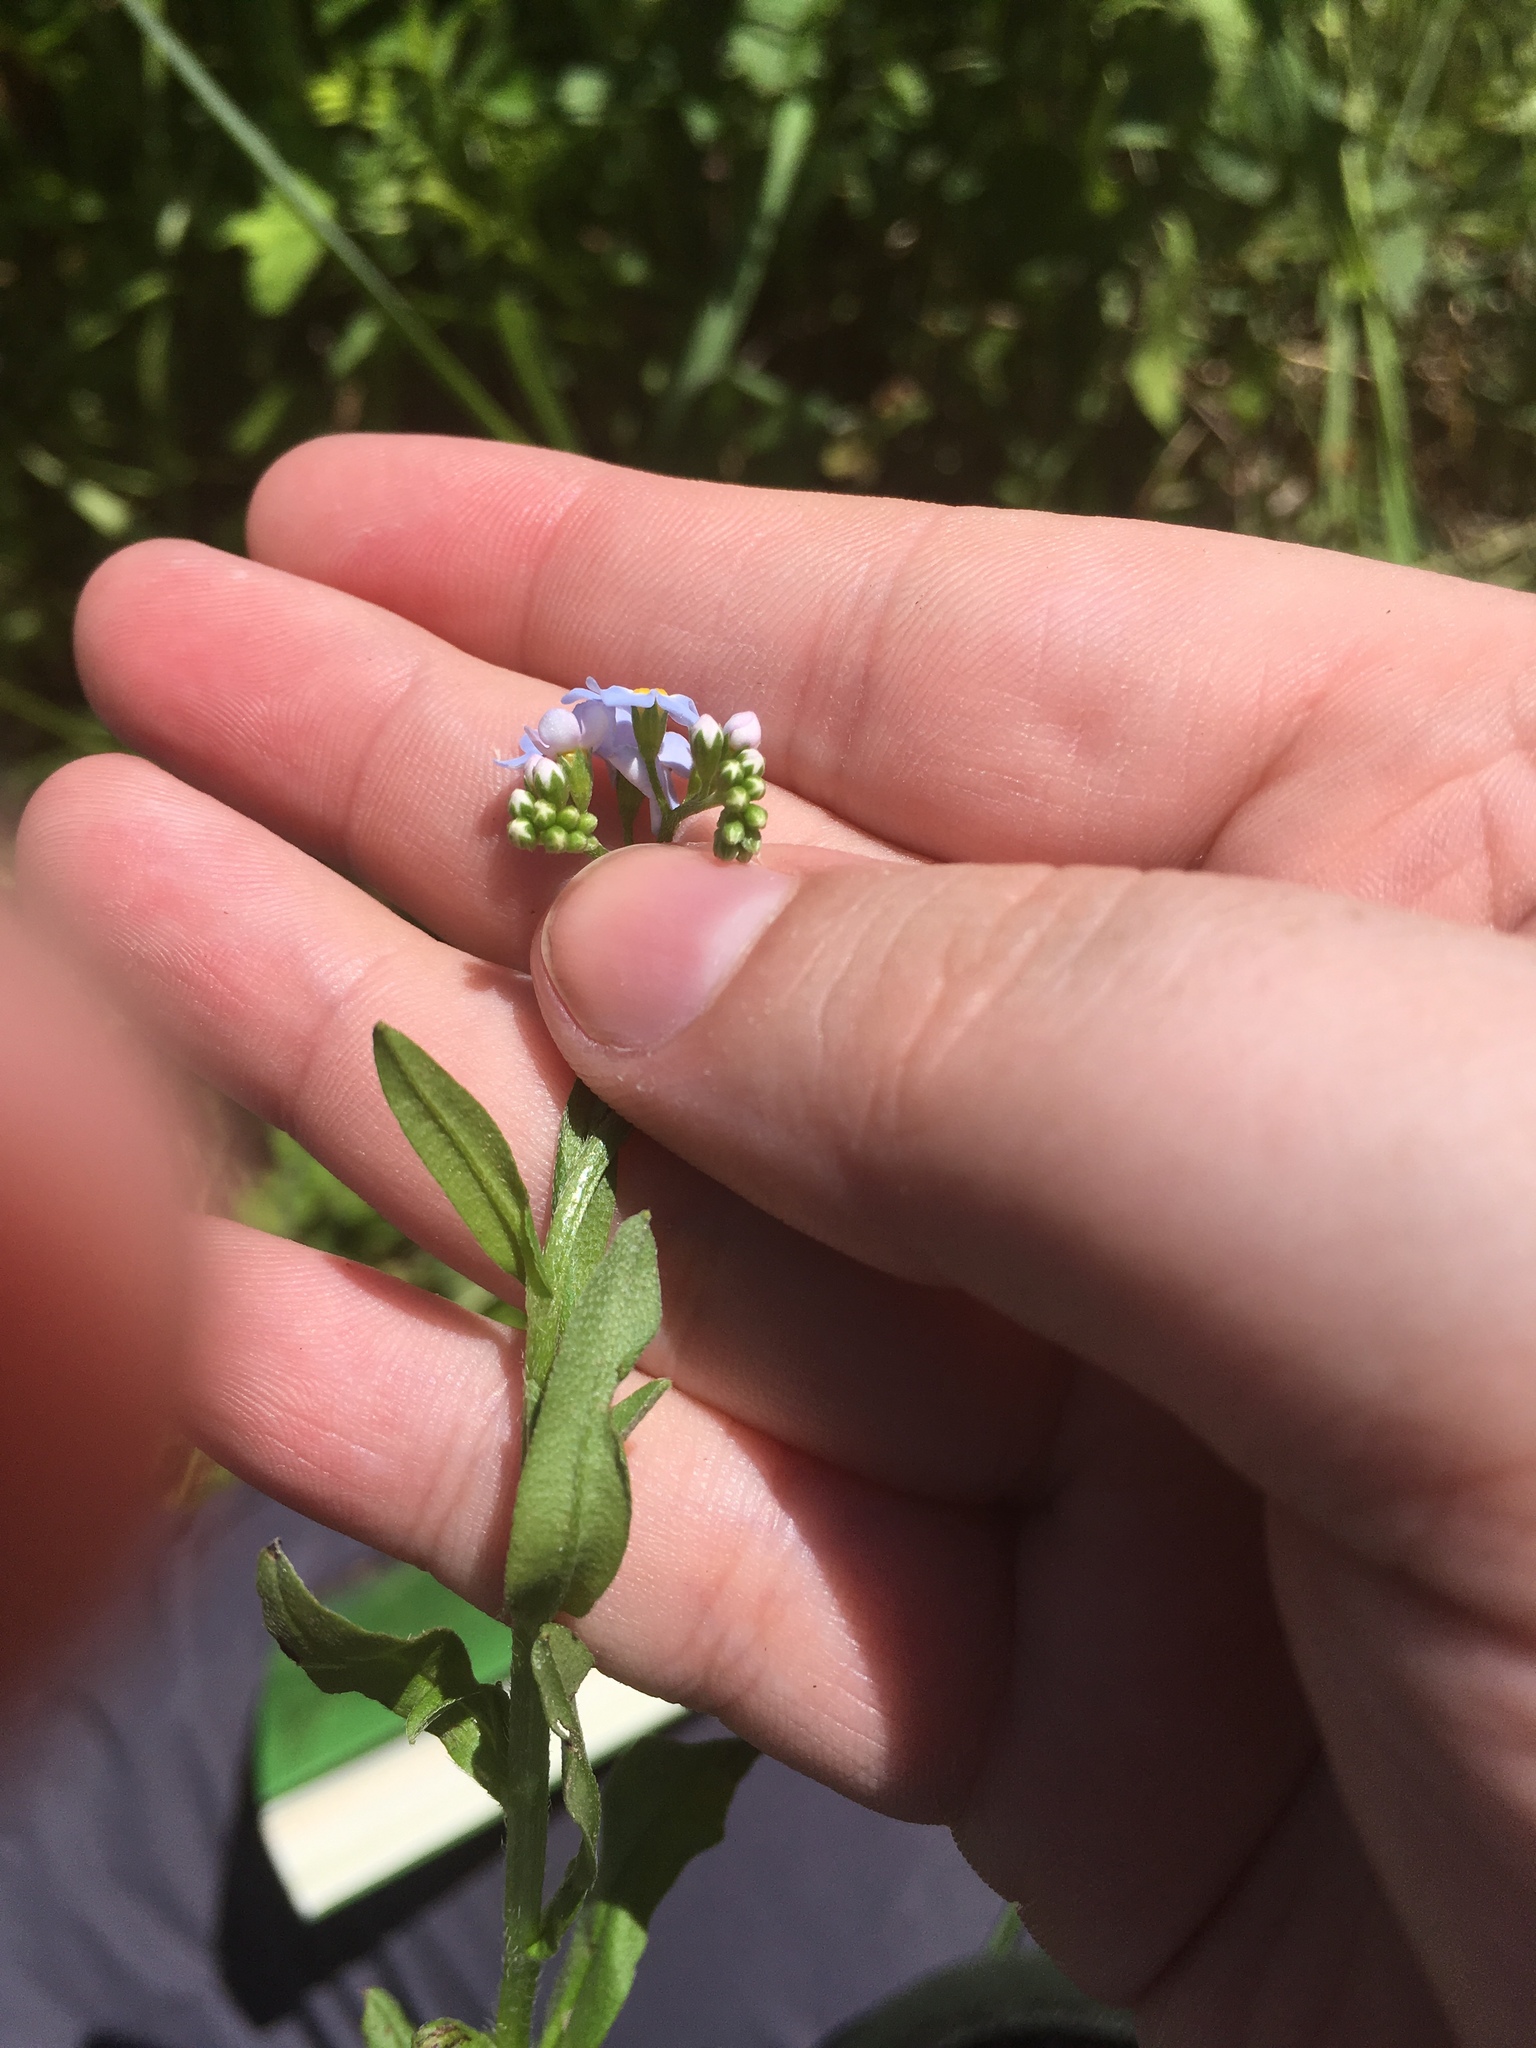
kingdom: Plantae
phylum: Tracheophyta
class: Magnoliopsida
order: Boraginales
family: Boraginaceae
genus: Myosotis
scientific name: Myosotis scorpioides
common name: Water forget-me-not
